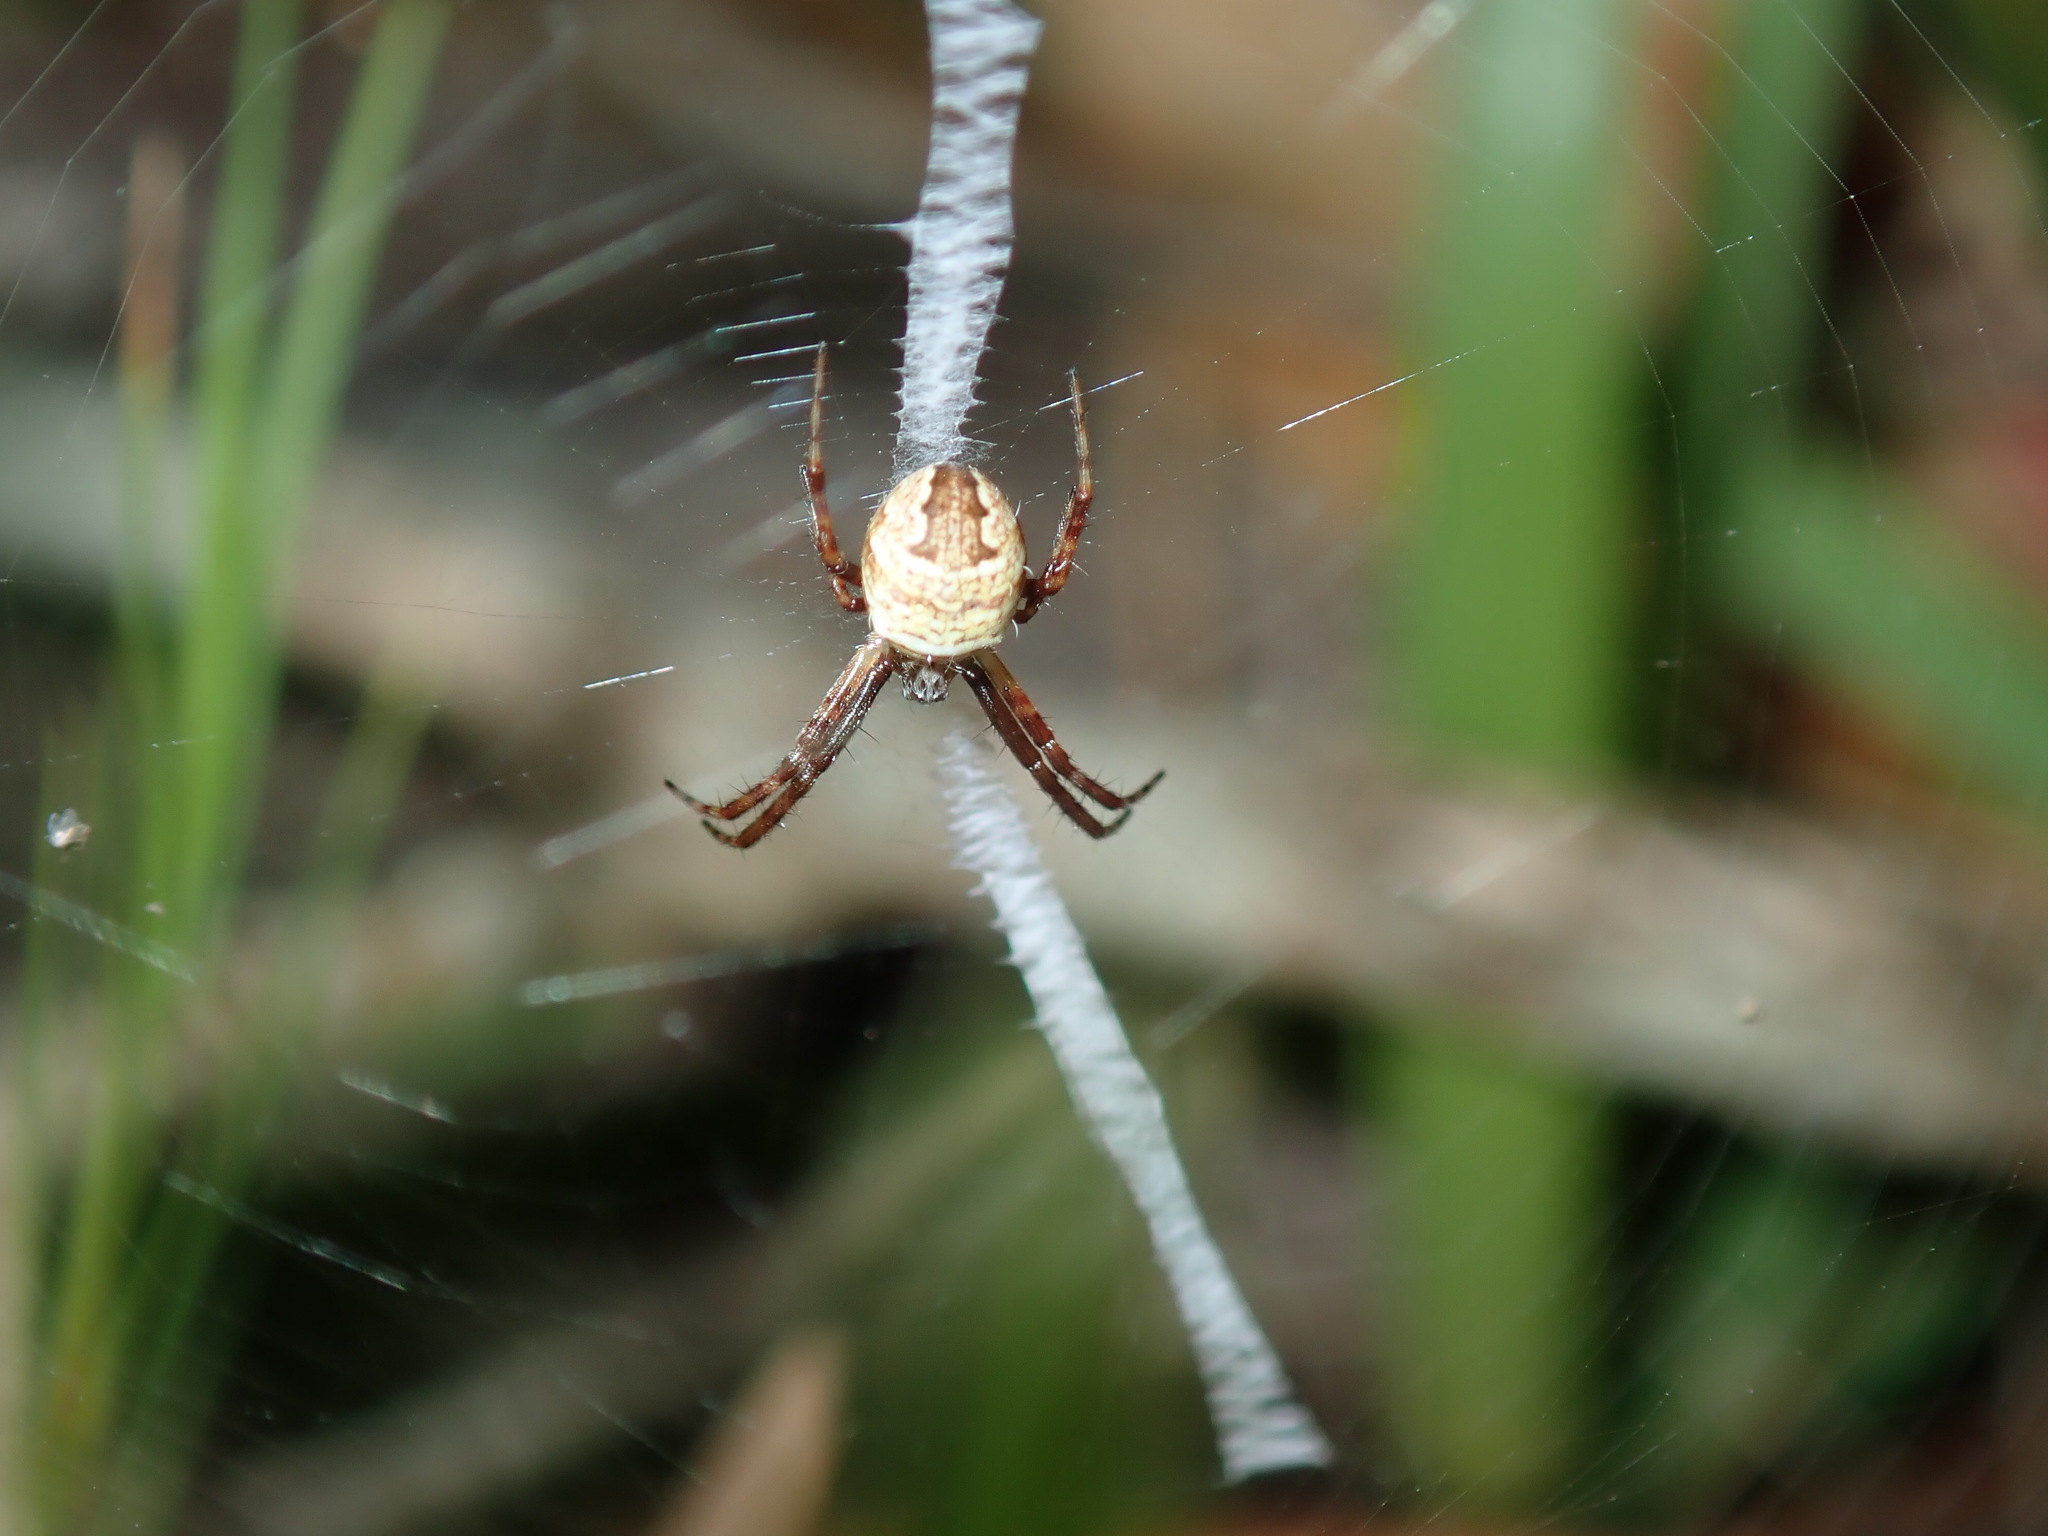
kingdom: Animalia
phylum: Arthropoda
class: Arachnida
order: Araneae
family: Araneidae
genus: Gea
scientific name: Gea theridioides
